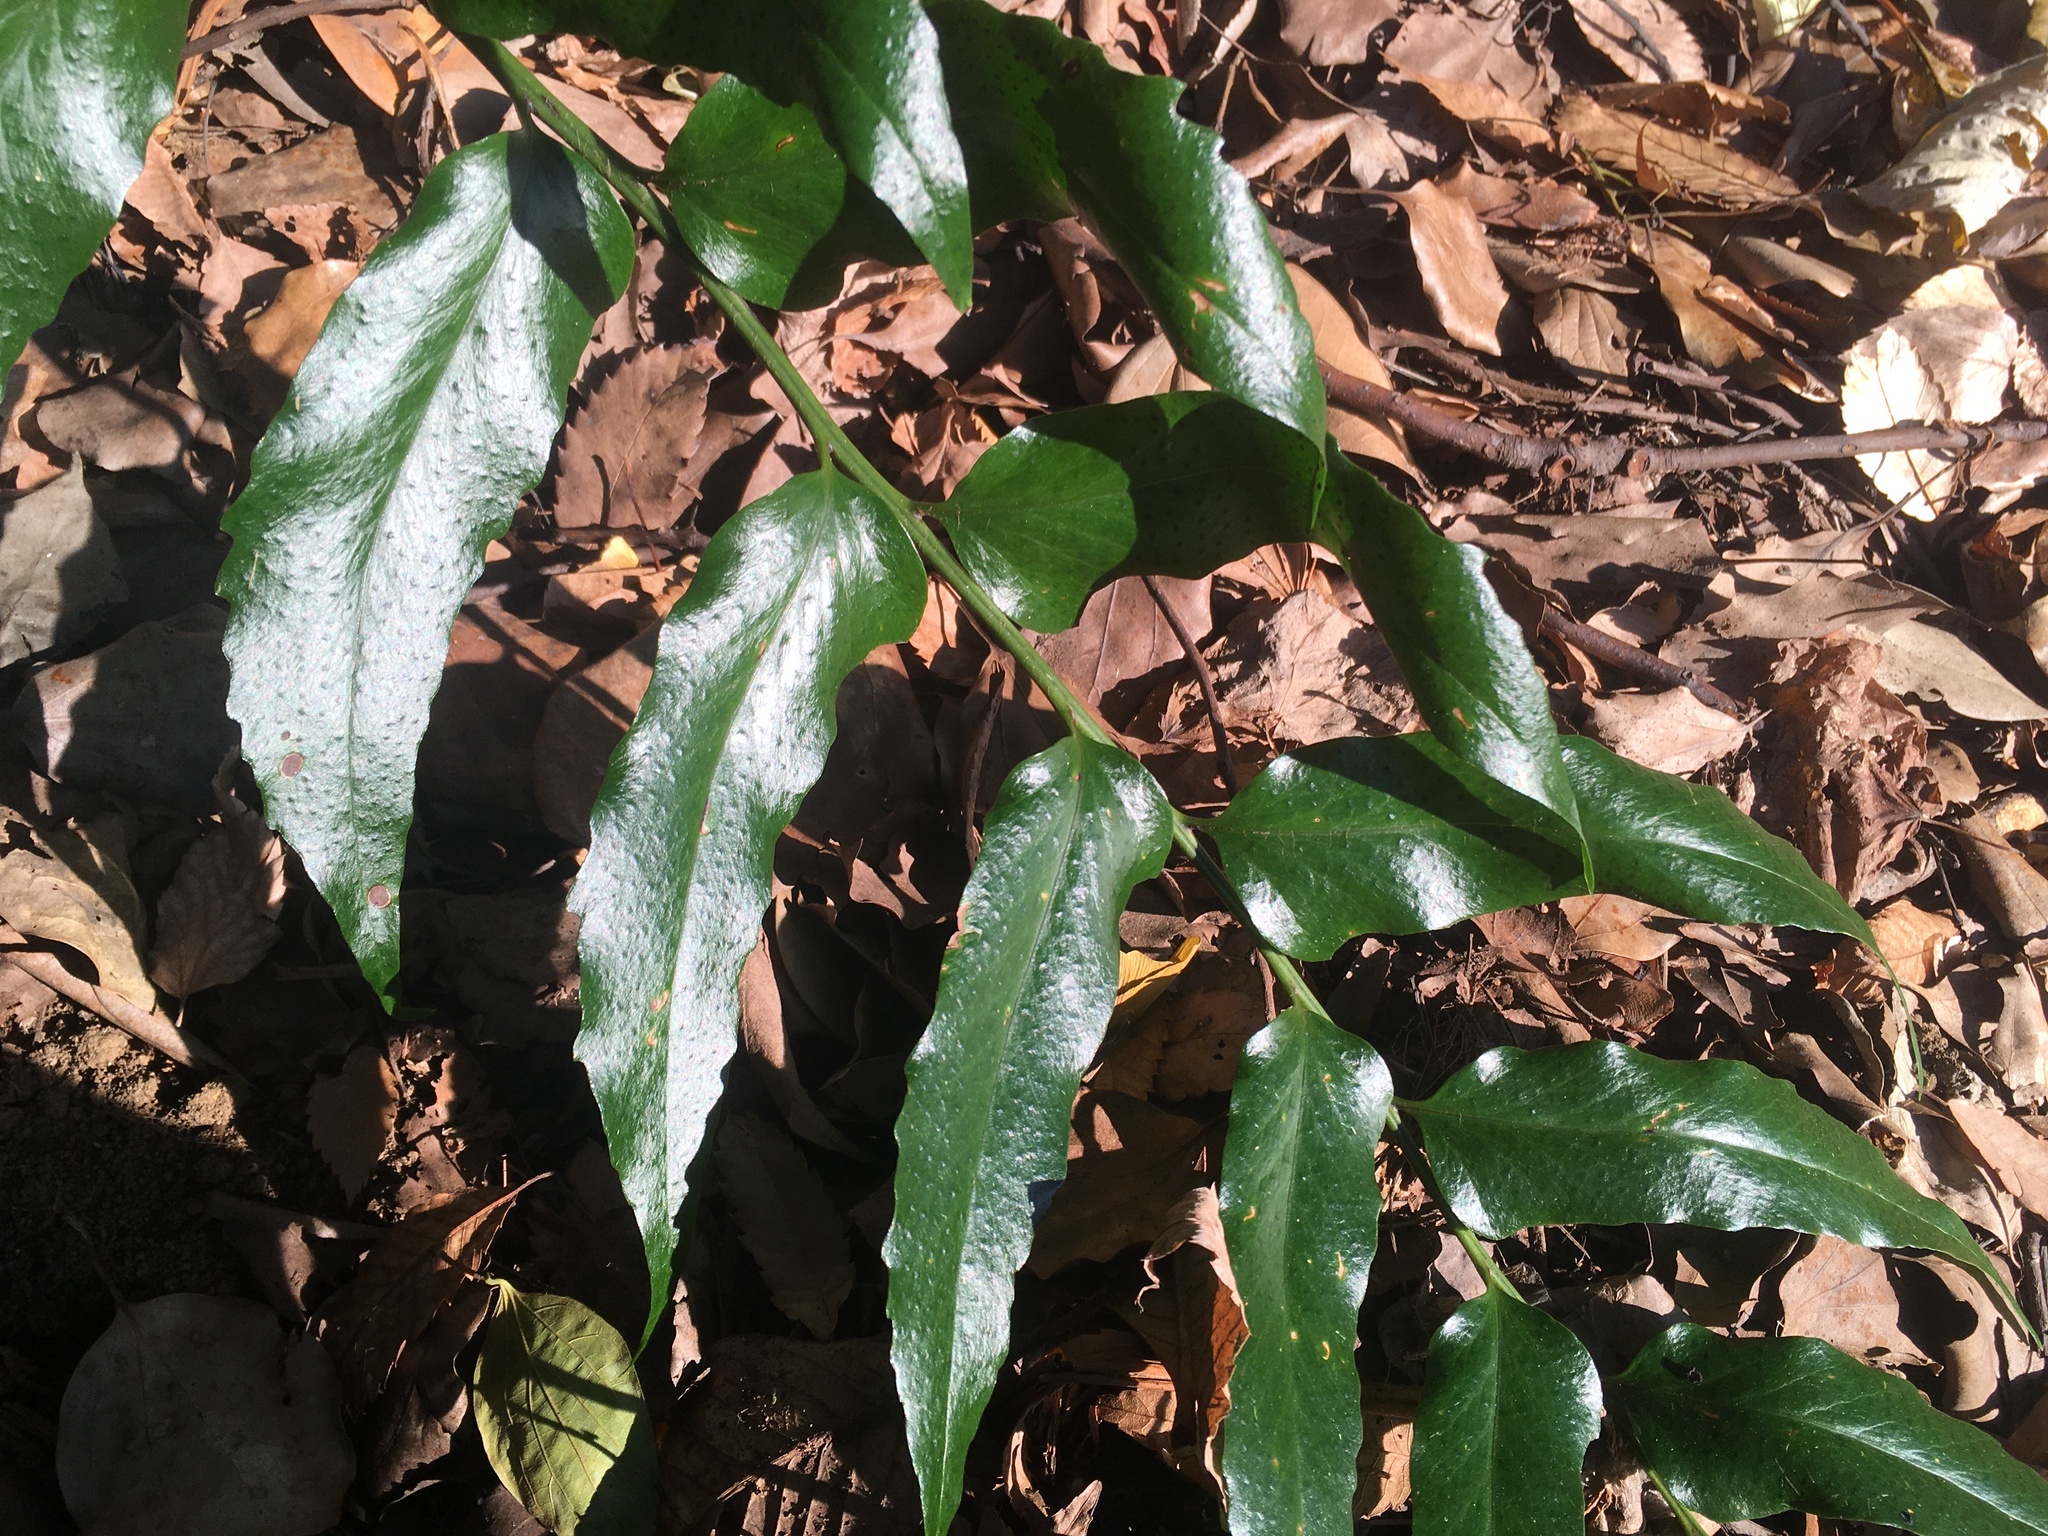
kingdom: Plantae
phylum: Tracheophyta
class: Polypodiopsida
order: Polypodiales
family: Dryopteridaceae
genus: Cyrtomium
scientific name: Cyrtomium devexiscapulae
